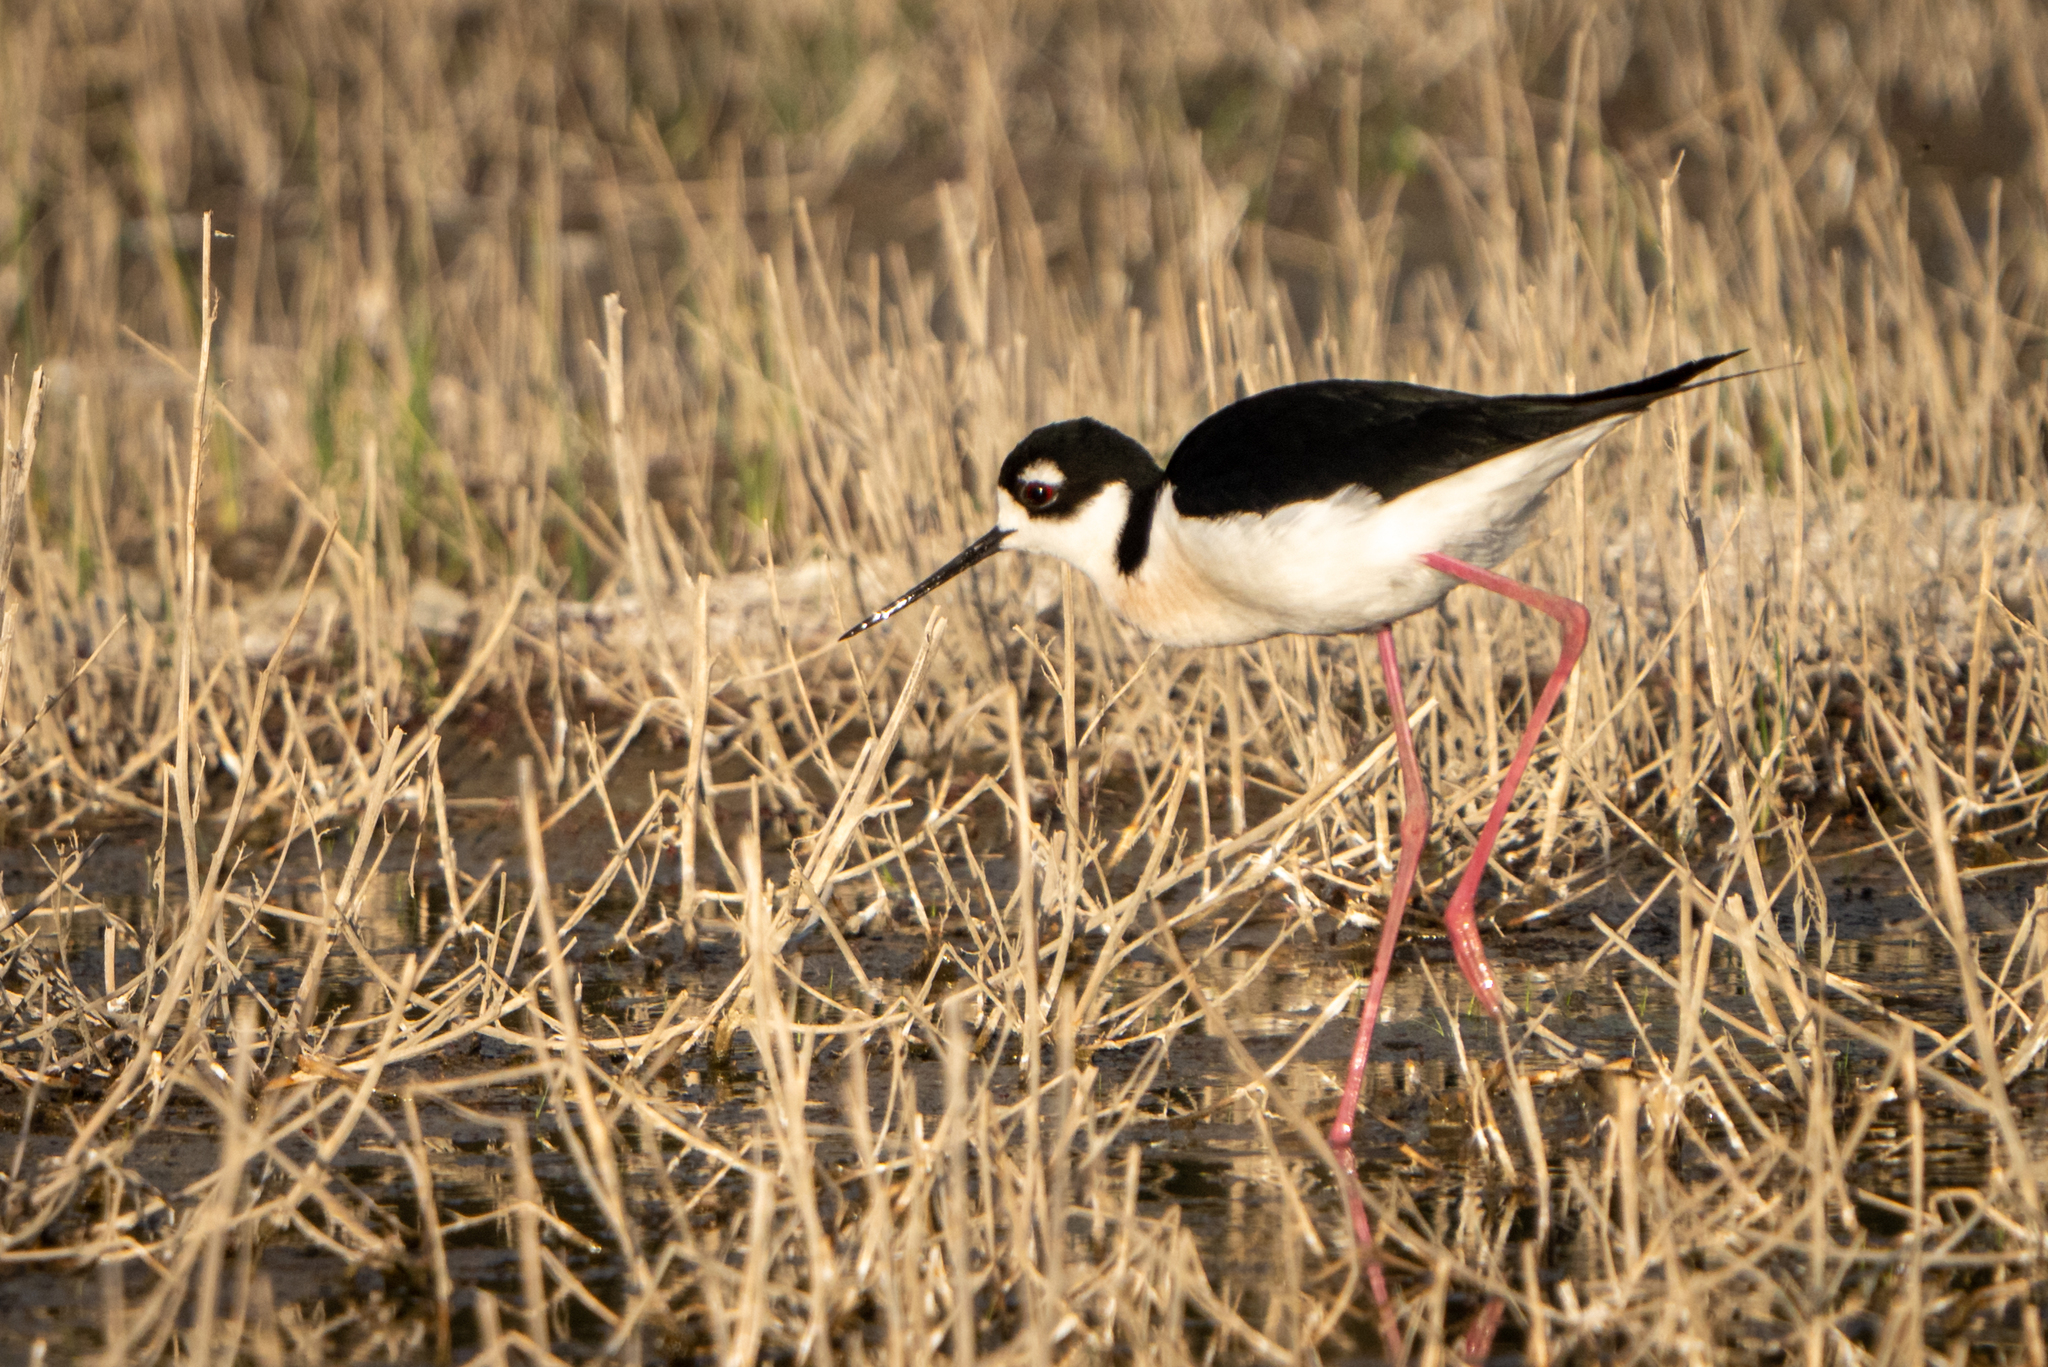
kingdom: Animalia
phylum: Chordata
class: Aves
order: Charadriiformes
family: Recurvirostridae
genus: Himantopus
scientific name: Himantopus mexicanus
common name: Black-necked stilt
